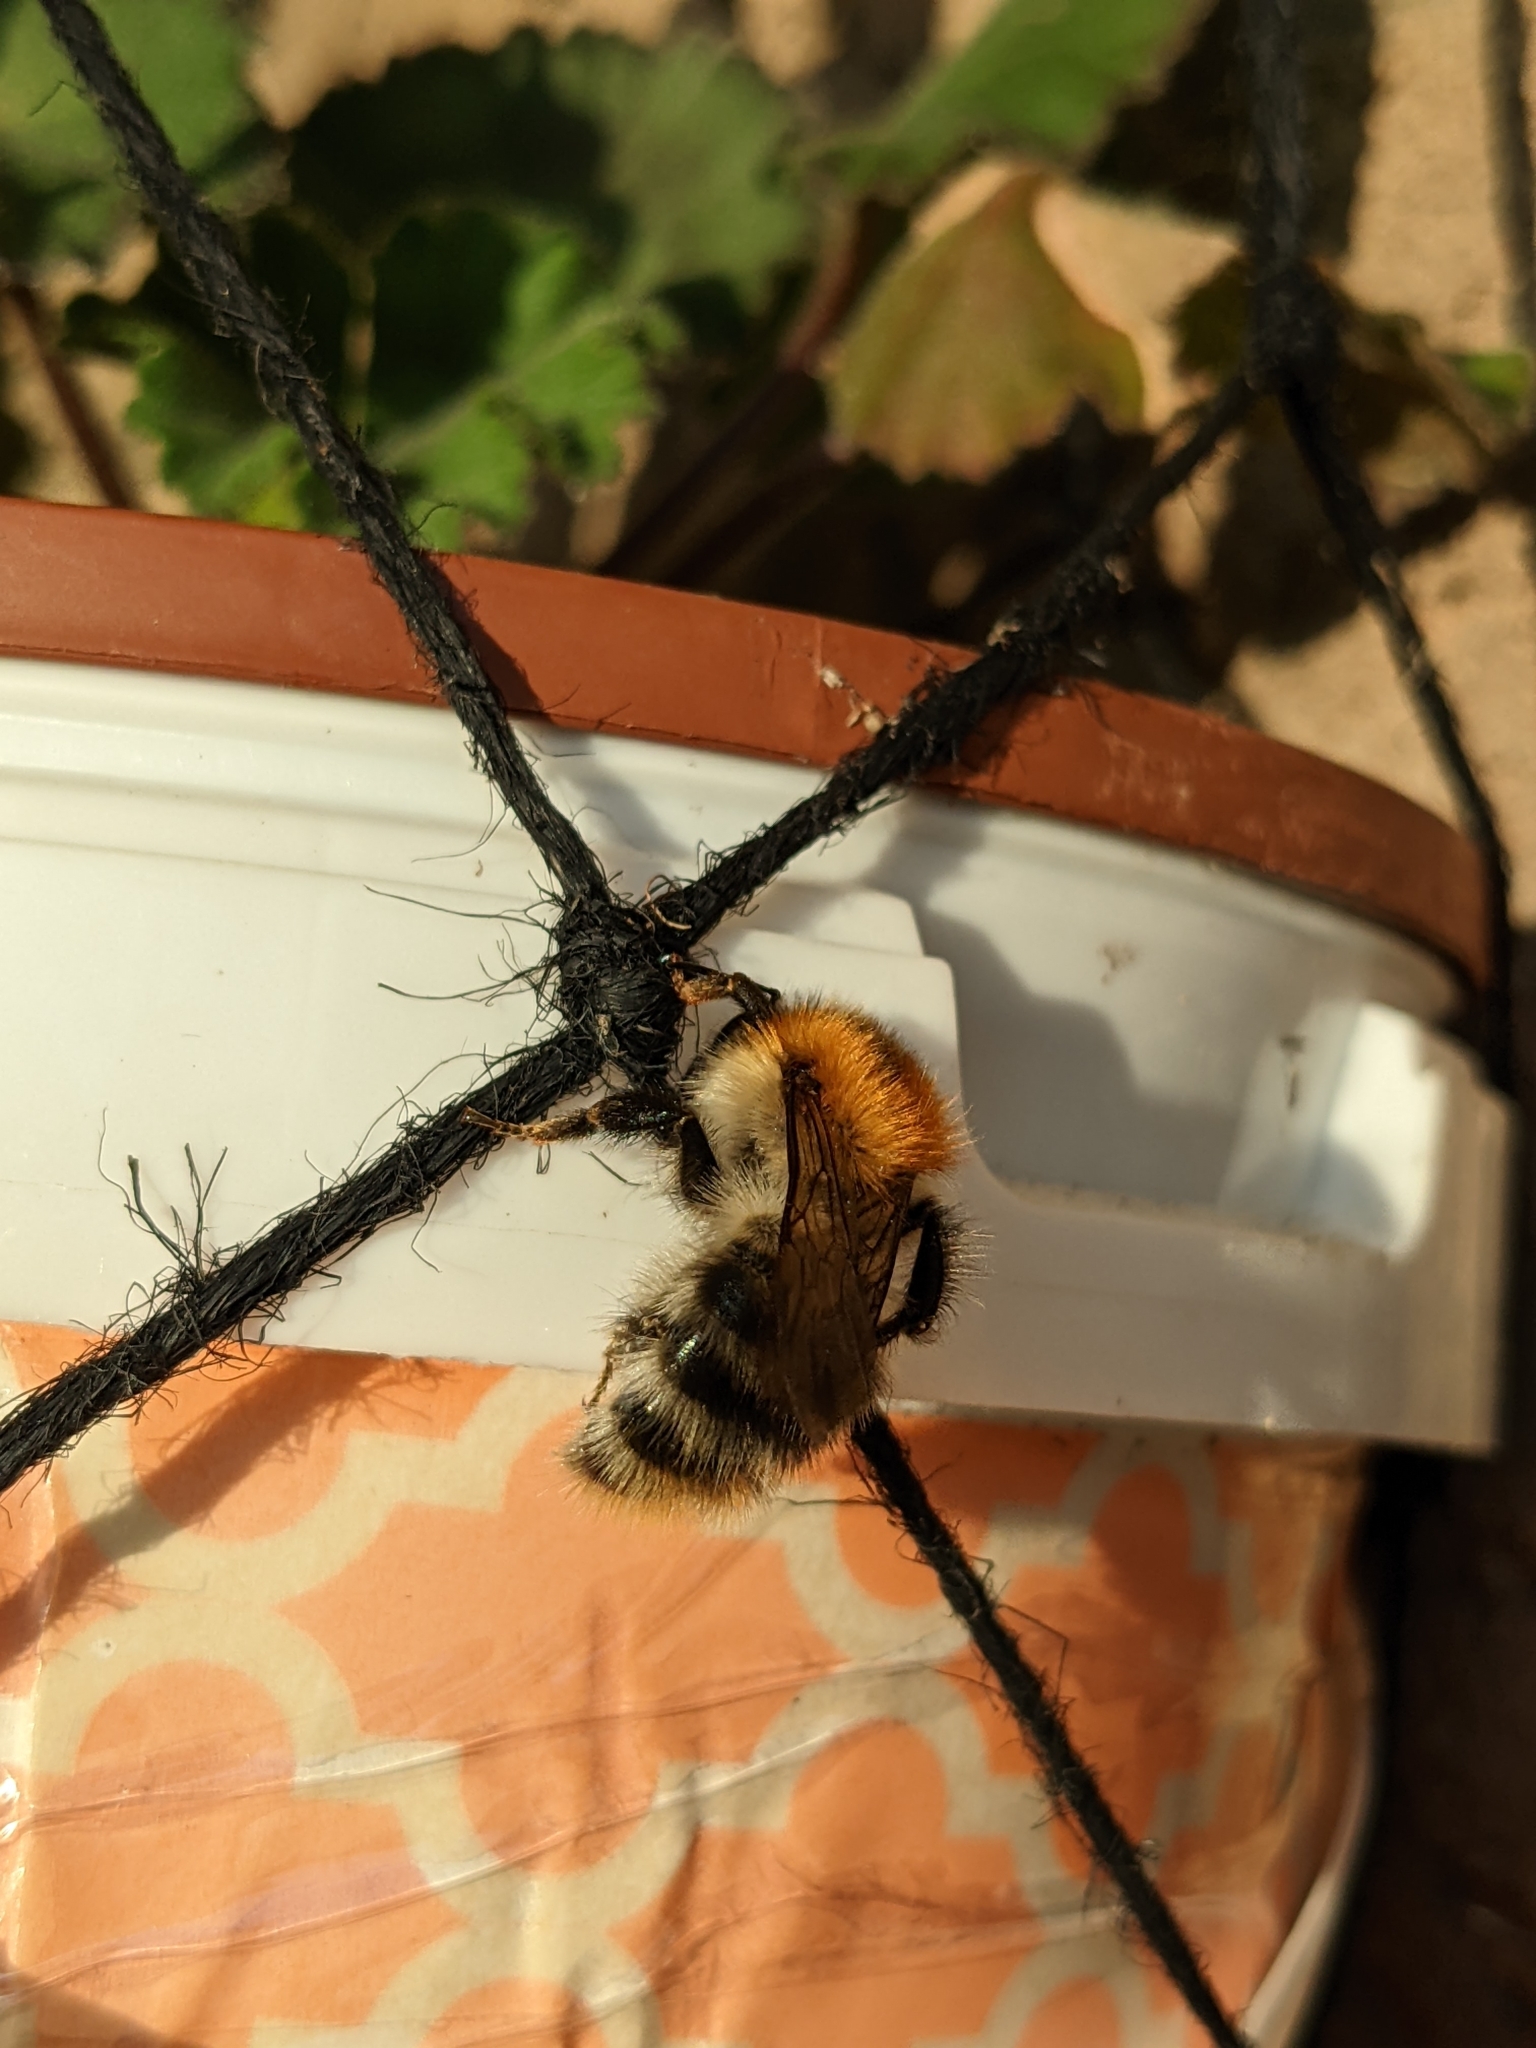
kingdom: Animalia
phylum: Arthropoda
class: Insecta
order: Hymenoptera
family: Apidae
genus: Bombus
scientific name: Bombus pascuorum
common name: Common carder bee
